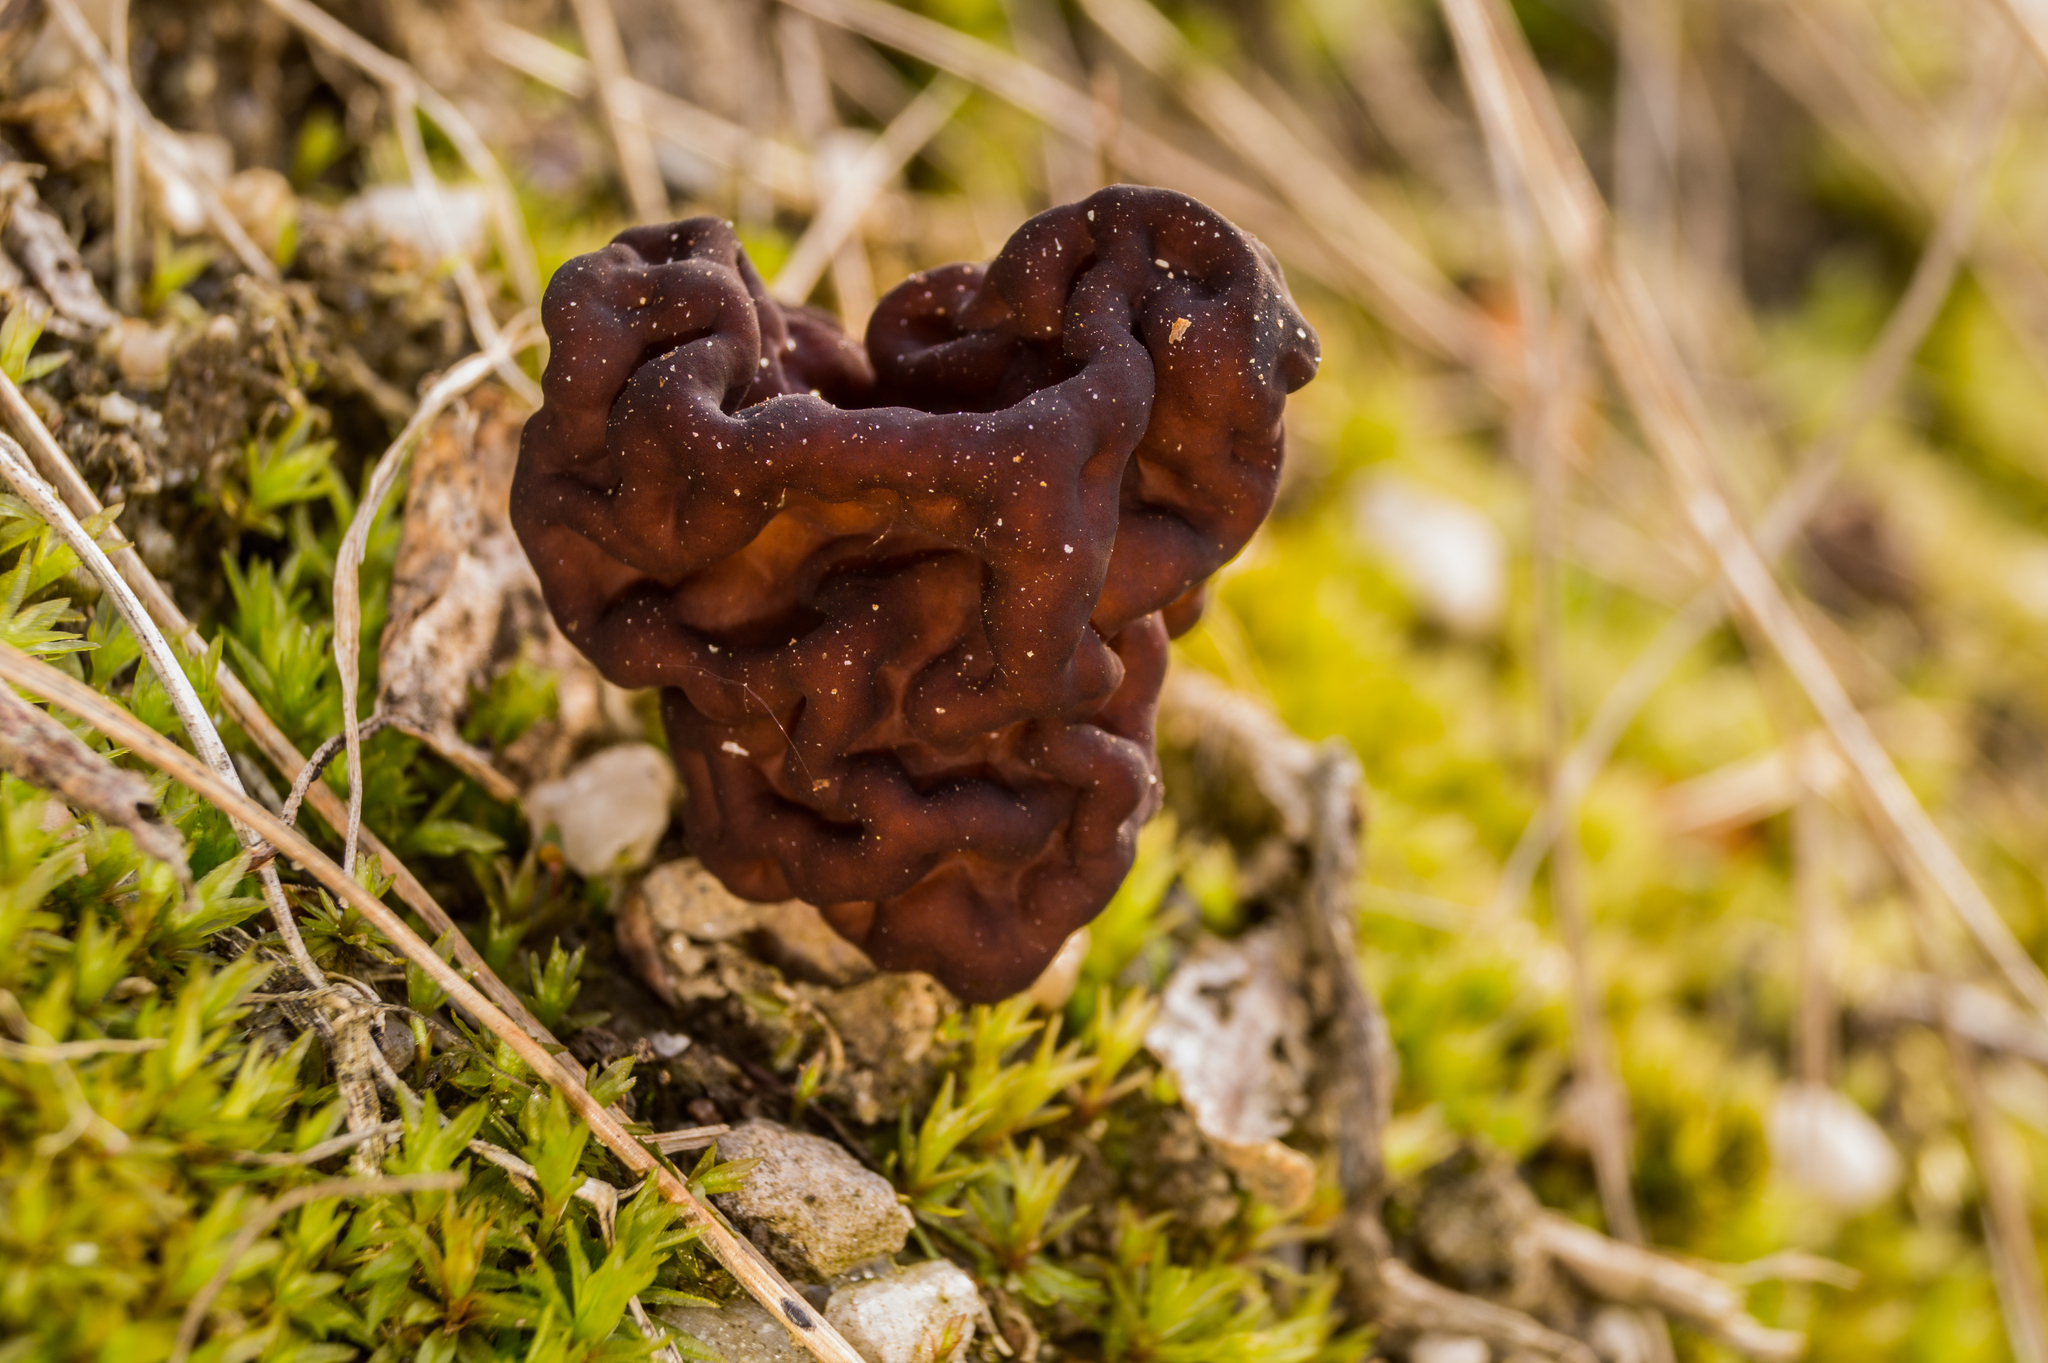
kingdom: Fungi
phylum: Ascomycota
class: Pezizomycetes
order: Pezizales
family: Discinaceae
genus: Gyromitra
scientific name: Gyromitra esculenta
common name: False morel
